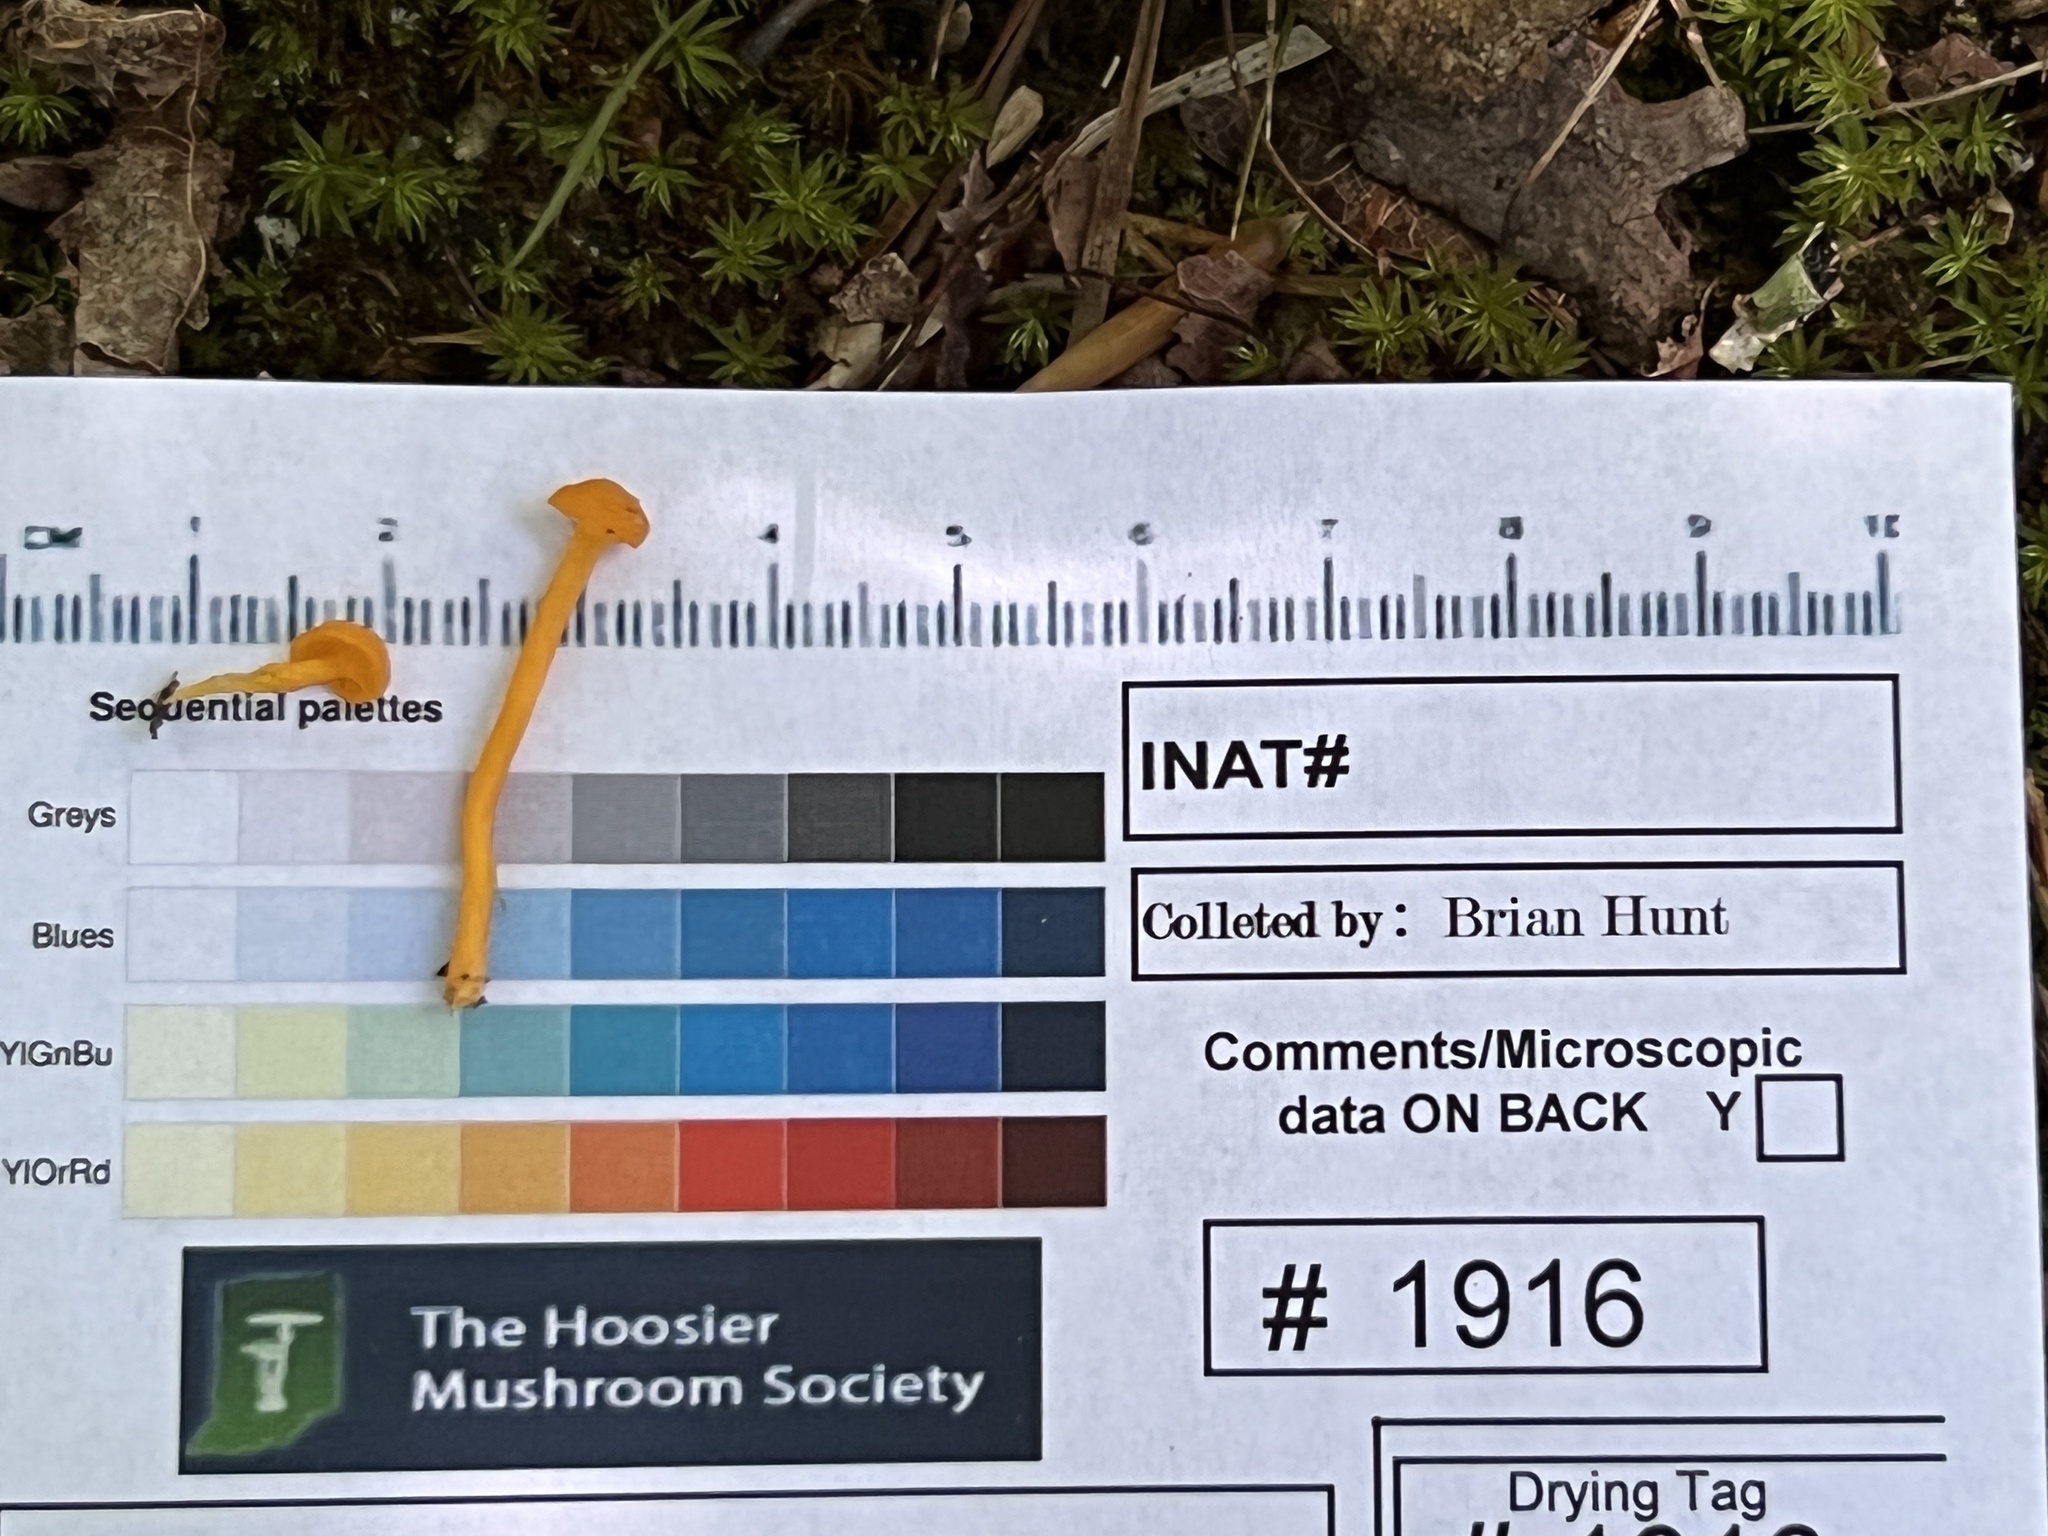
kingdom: Fungi
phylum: Ascomycota
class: Eurotiomycetes
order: Eurotiales
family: Aspergillaceae
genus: Talaromyces
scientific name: Talaromyces amestolkiae
